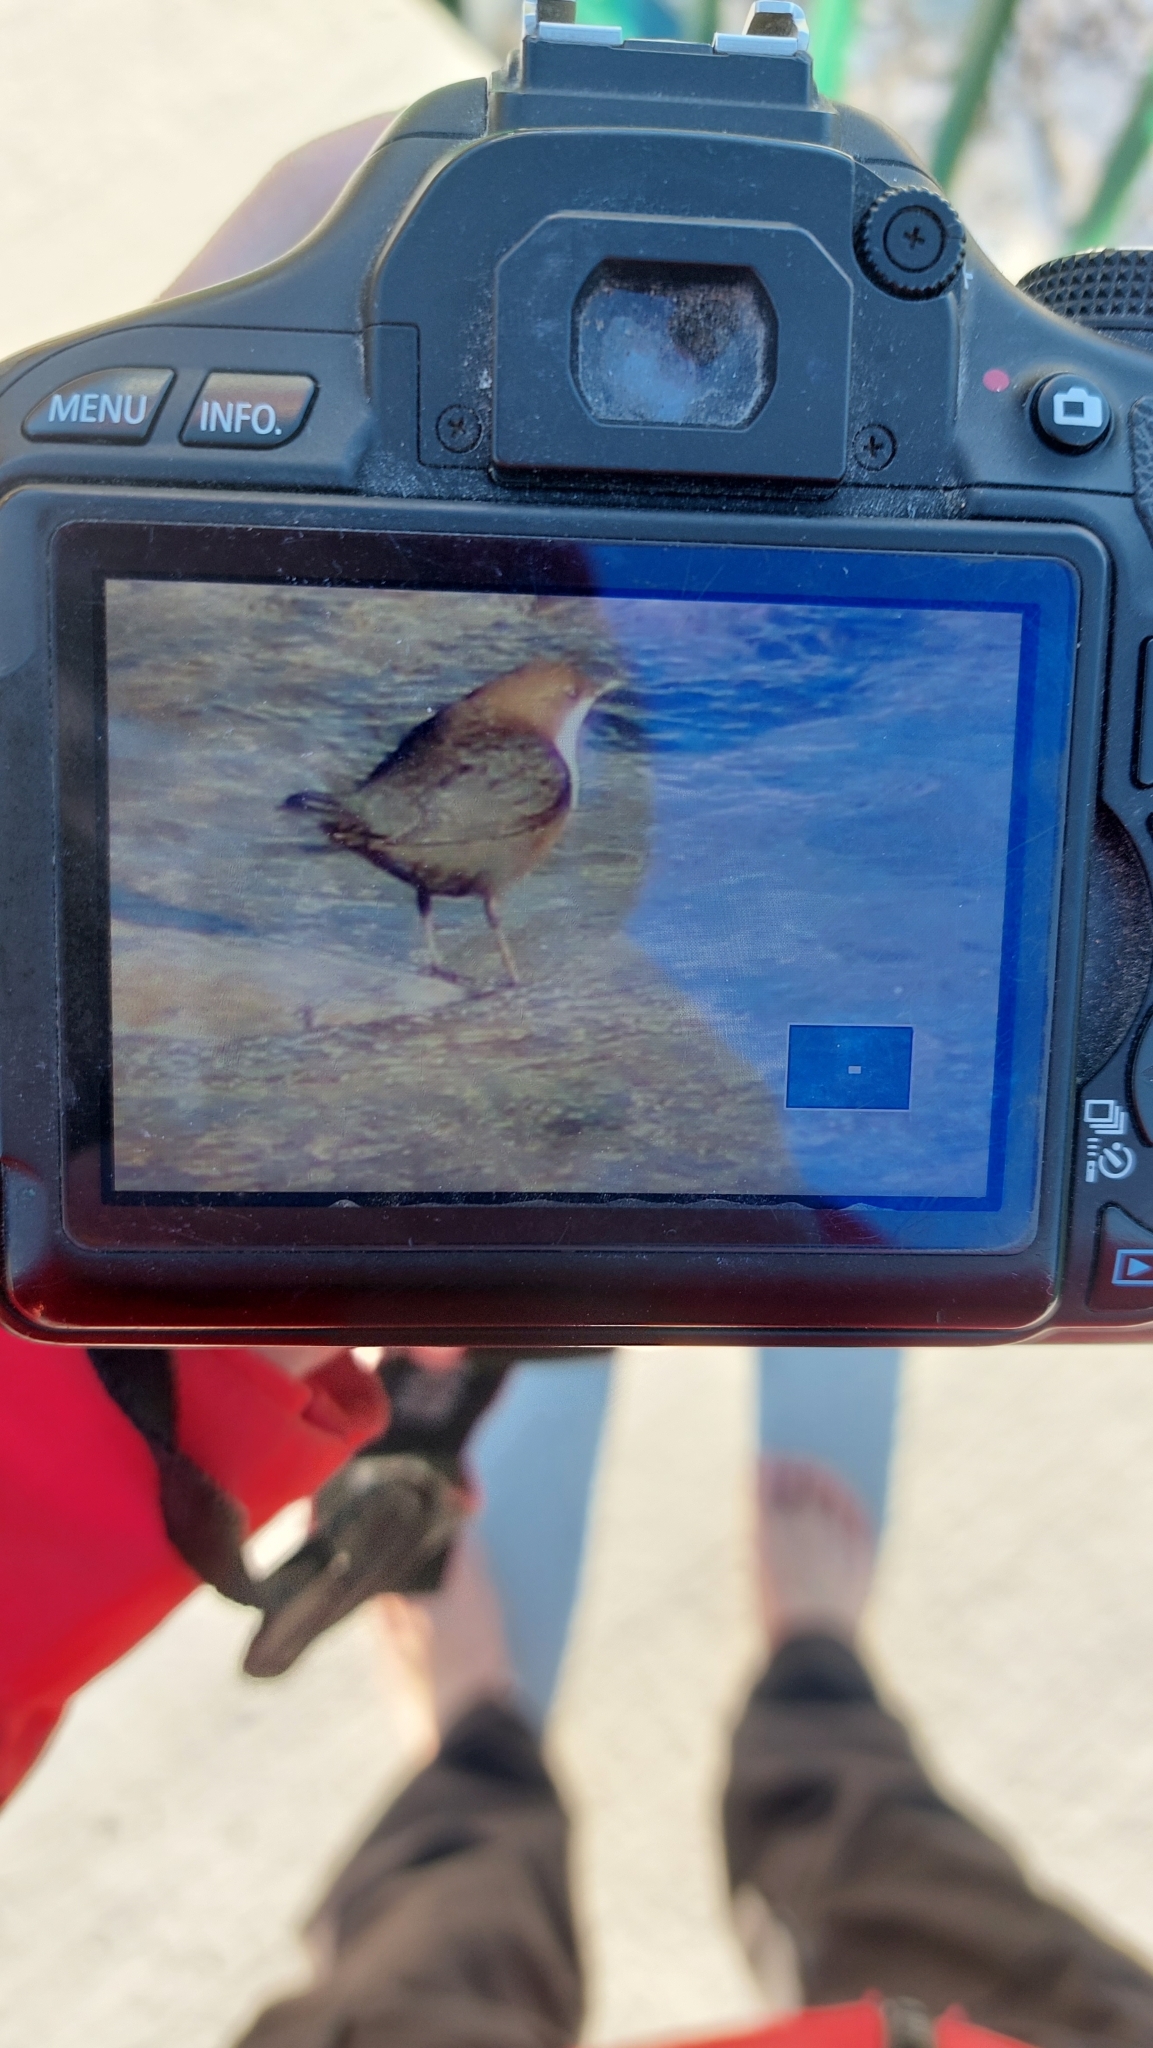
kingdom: Animalia
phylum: Chordata
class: Aves
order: Passeriformes
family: Cinclidae
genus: Cinclus
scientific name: Cinclus cinclus
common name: White-throated dipper
